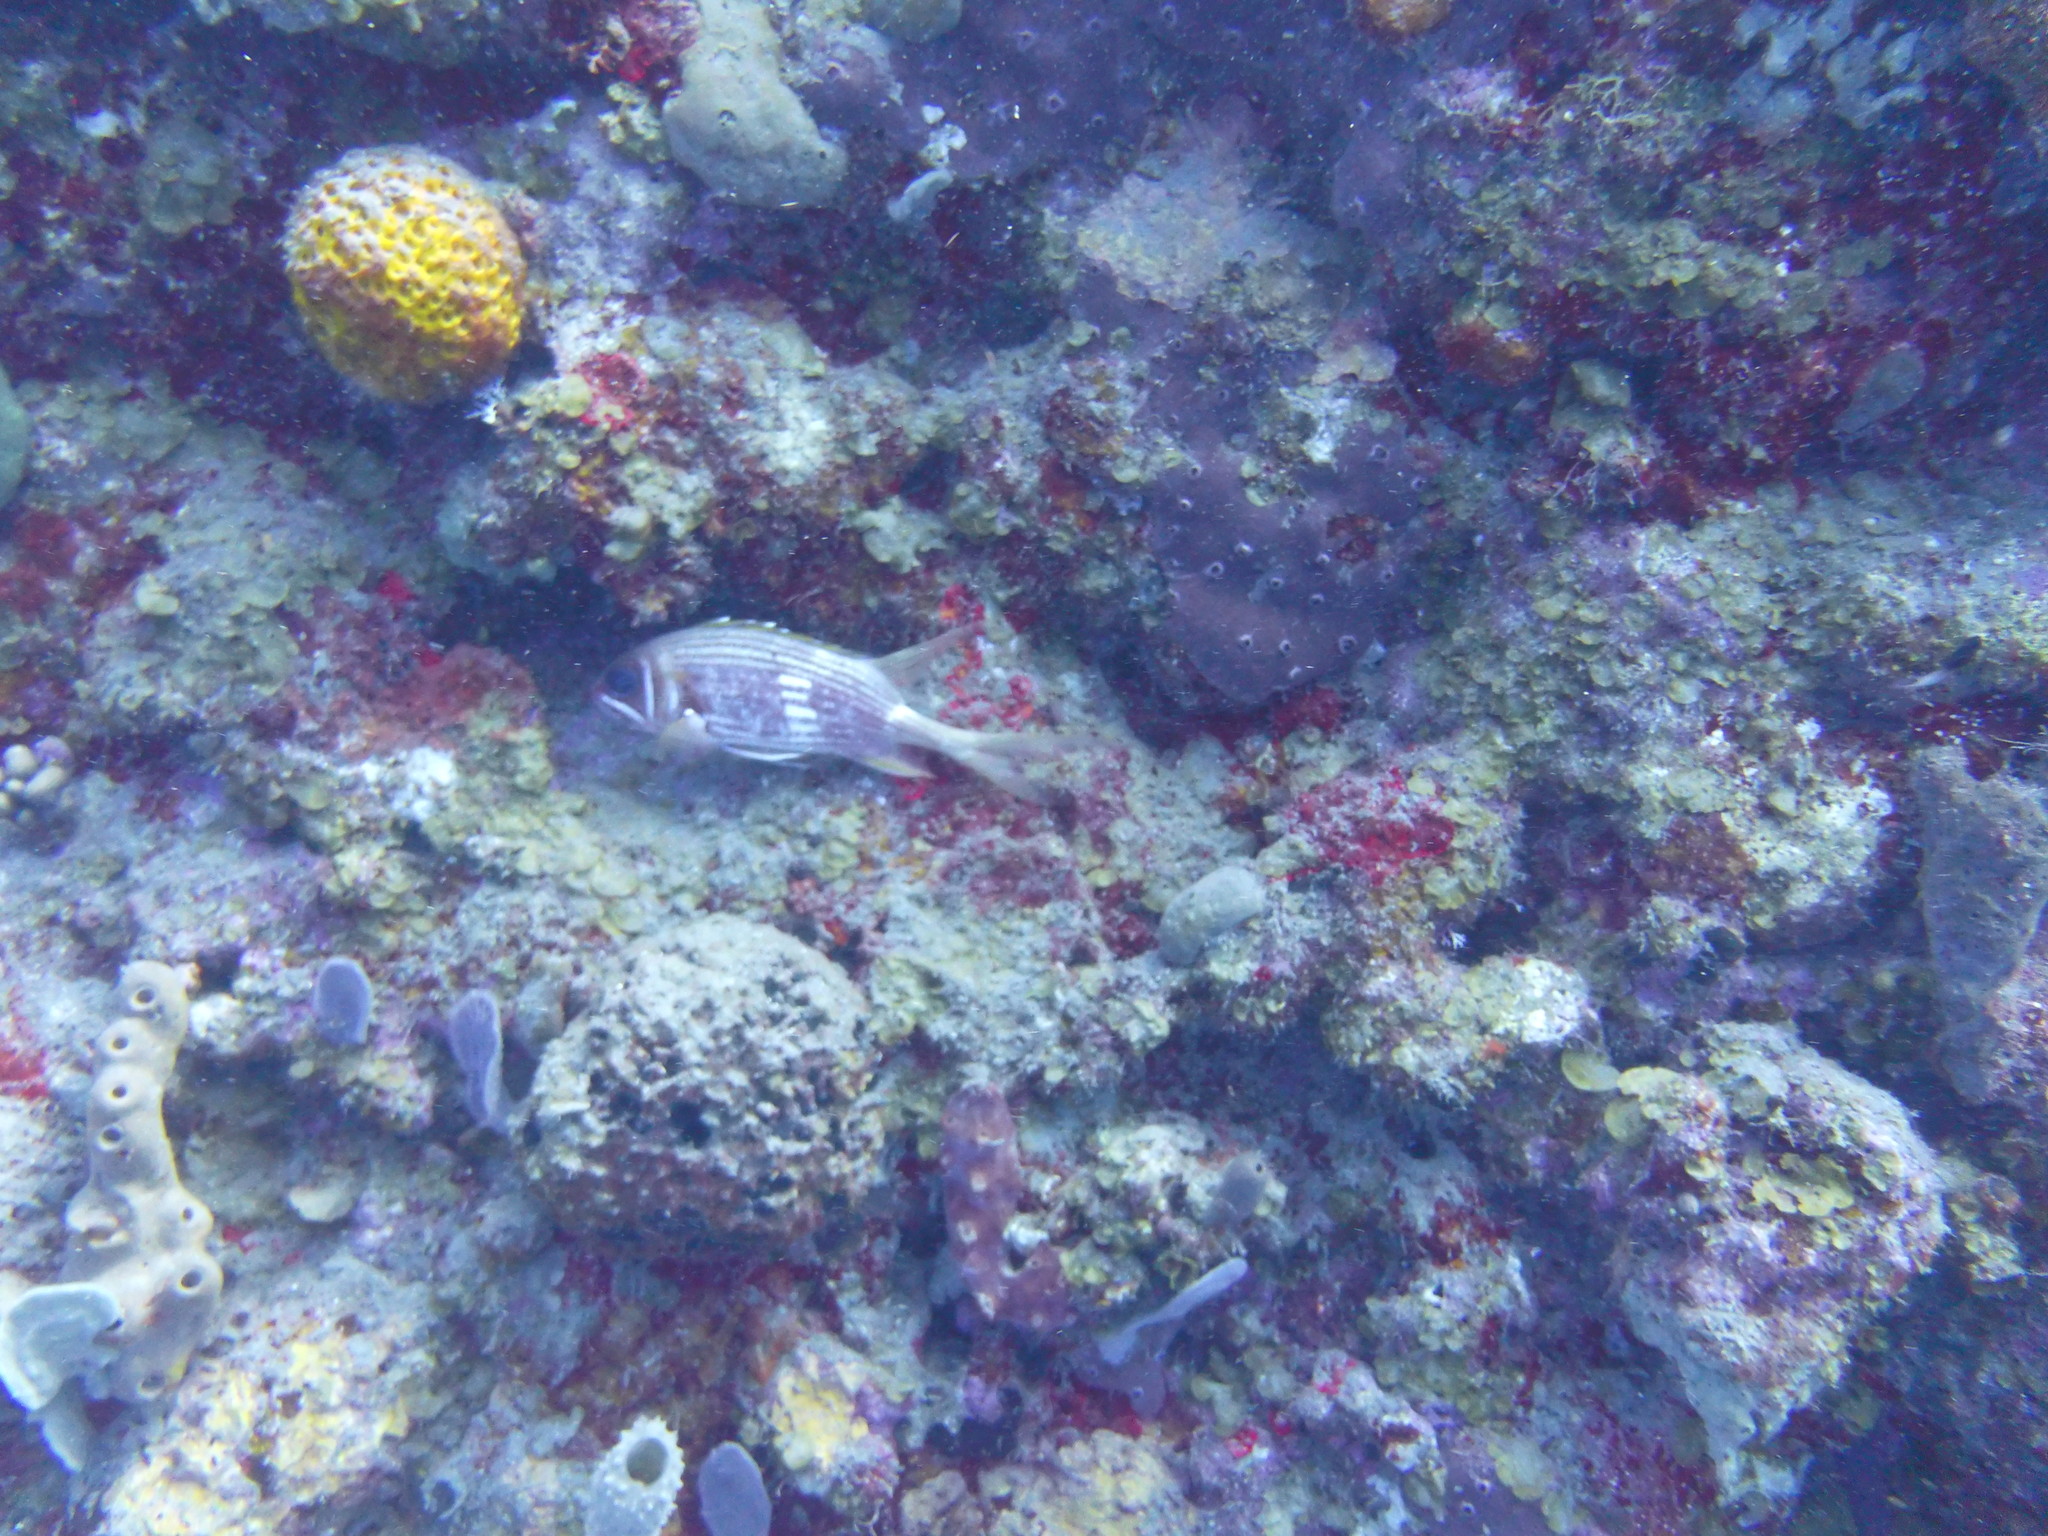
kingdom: Animalia
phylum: Chordata
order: Beryciformes
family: Holocentridae
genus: Holocentrus
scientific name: Holocentrus rufus
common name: Longspine squirrelfish
